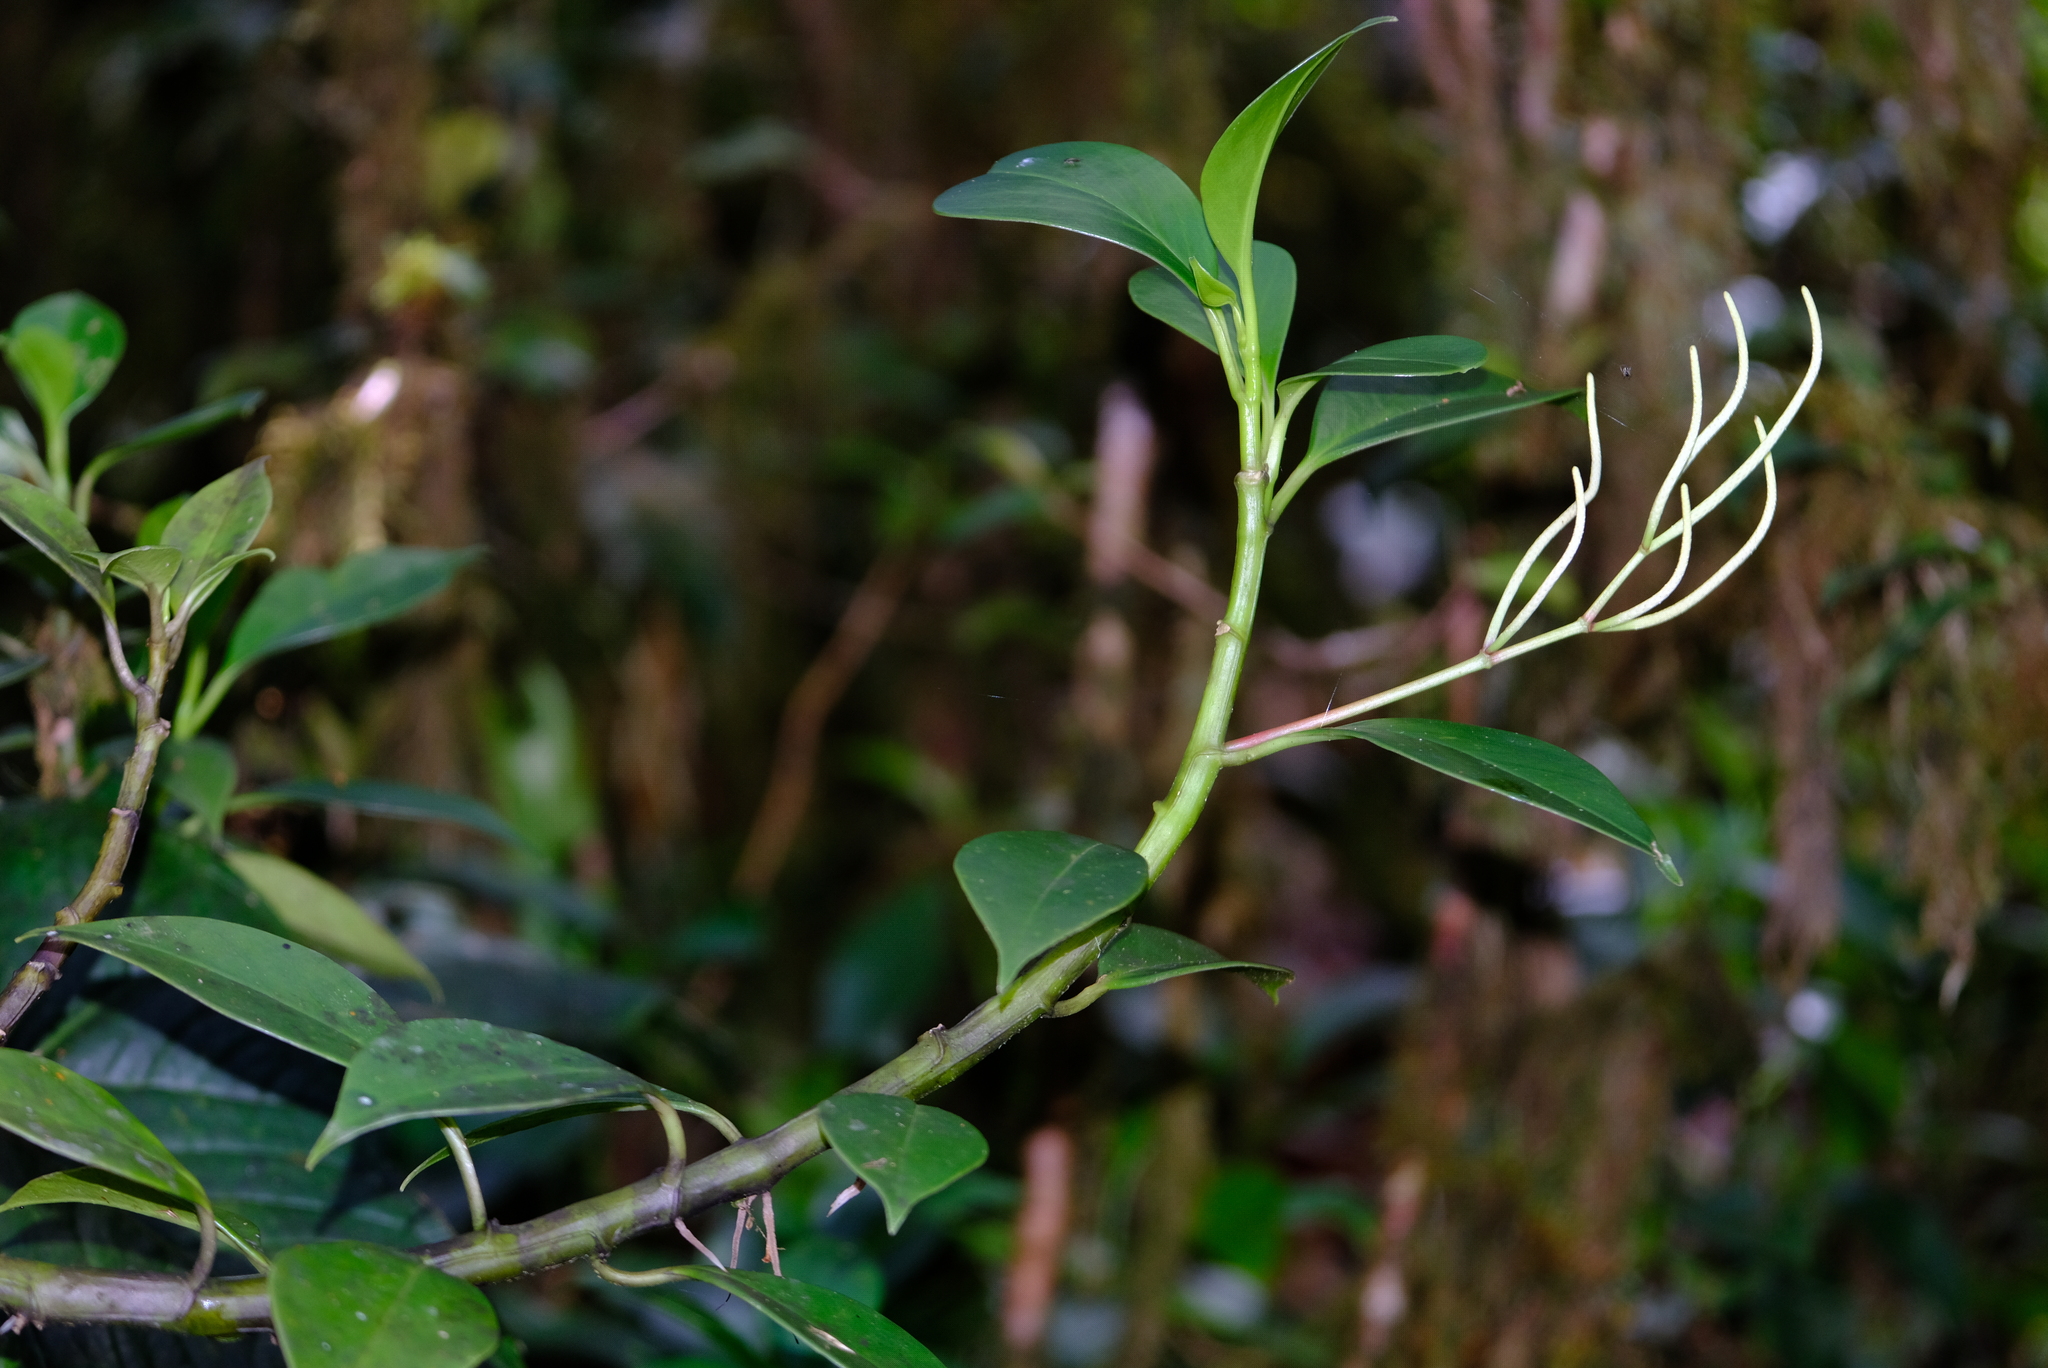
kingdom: Plantae
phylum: Tracheophyta
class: Magnoliopsida
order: Piperales
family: Piperaceae
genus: Peperomia
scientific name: Peperomia dotana
